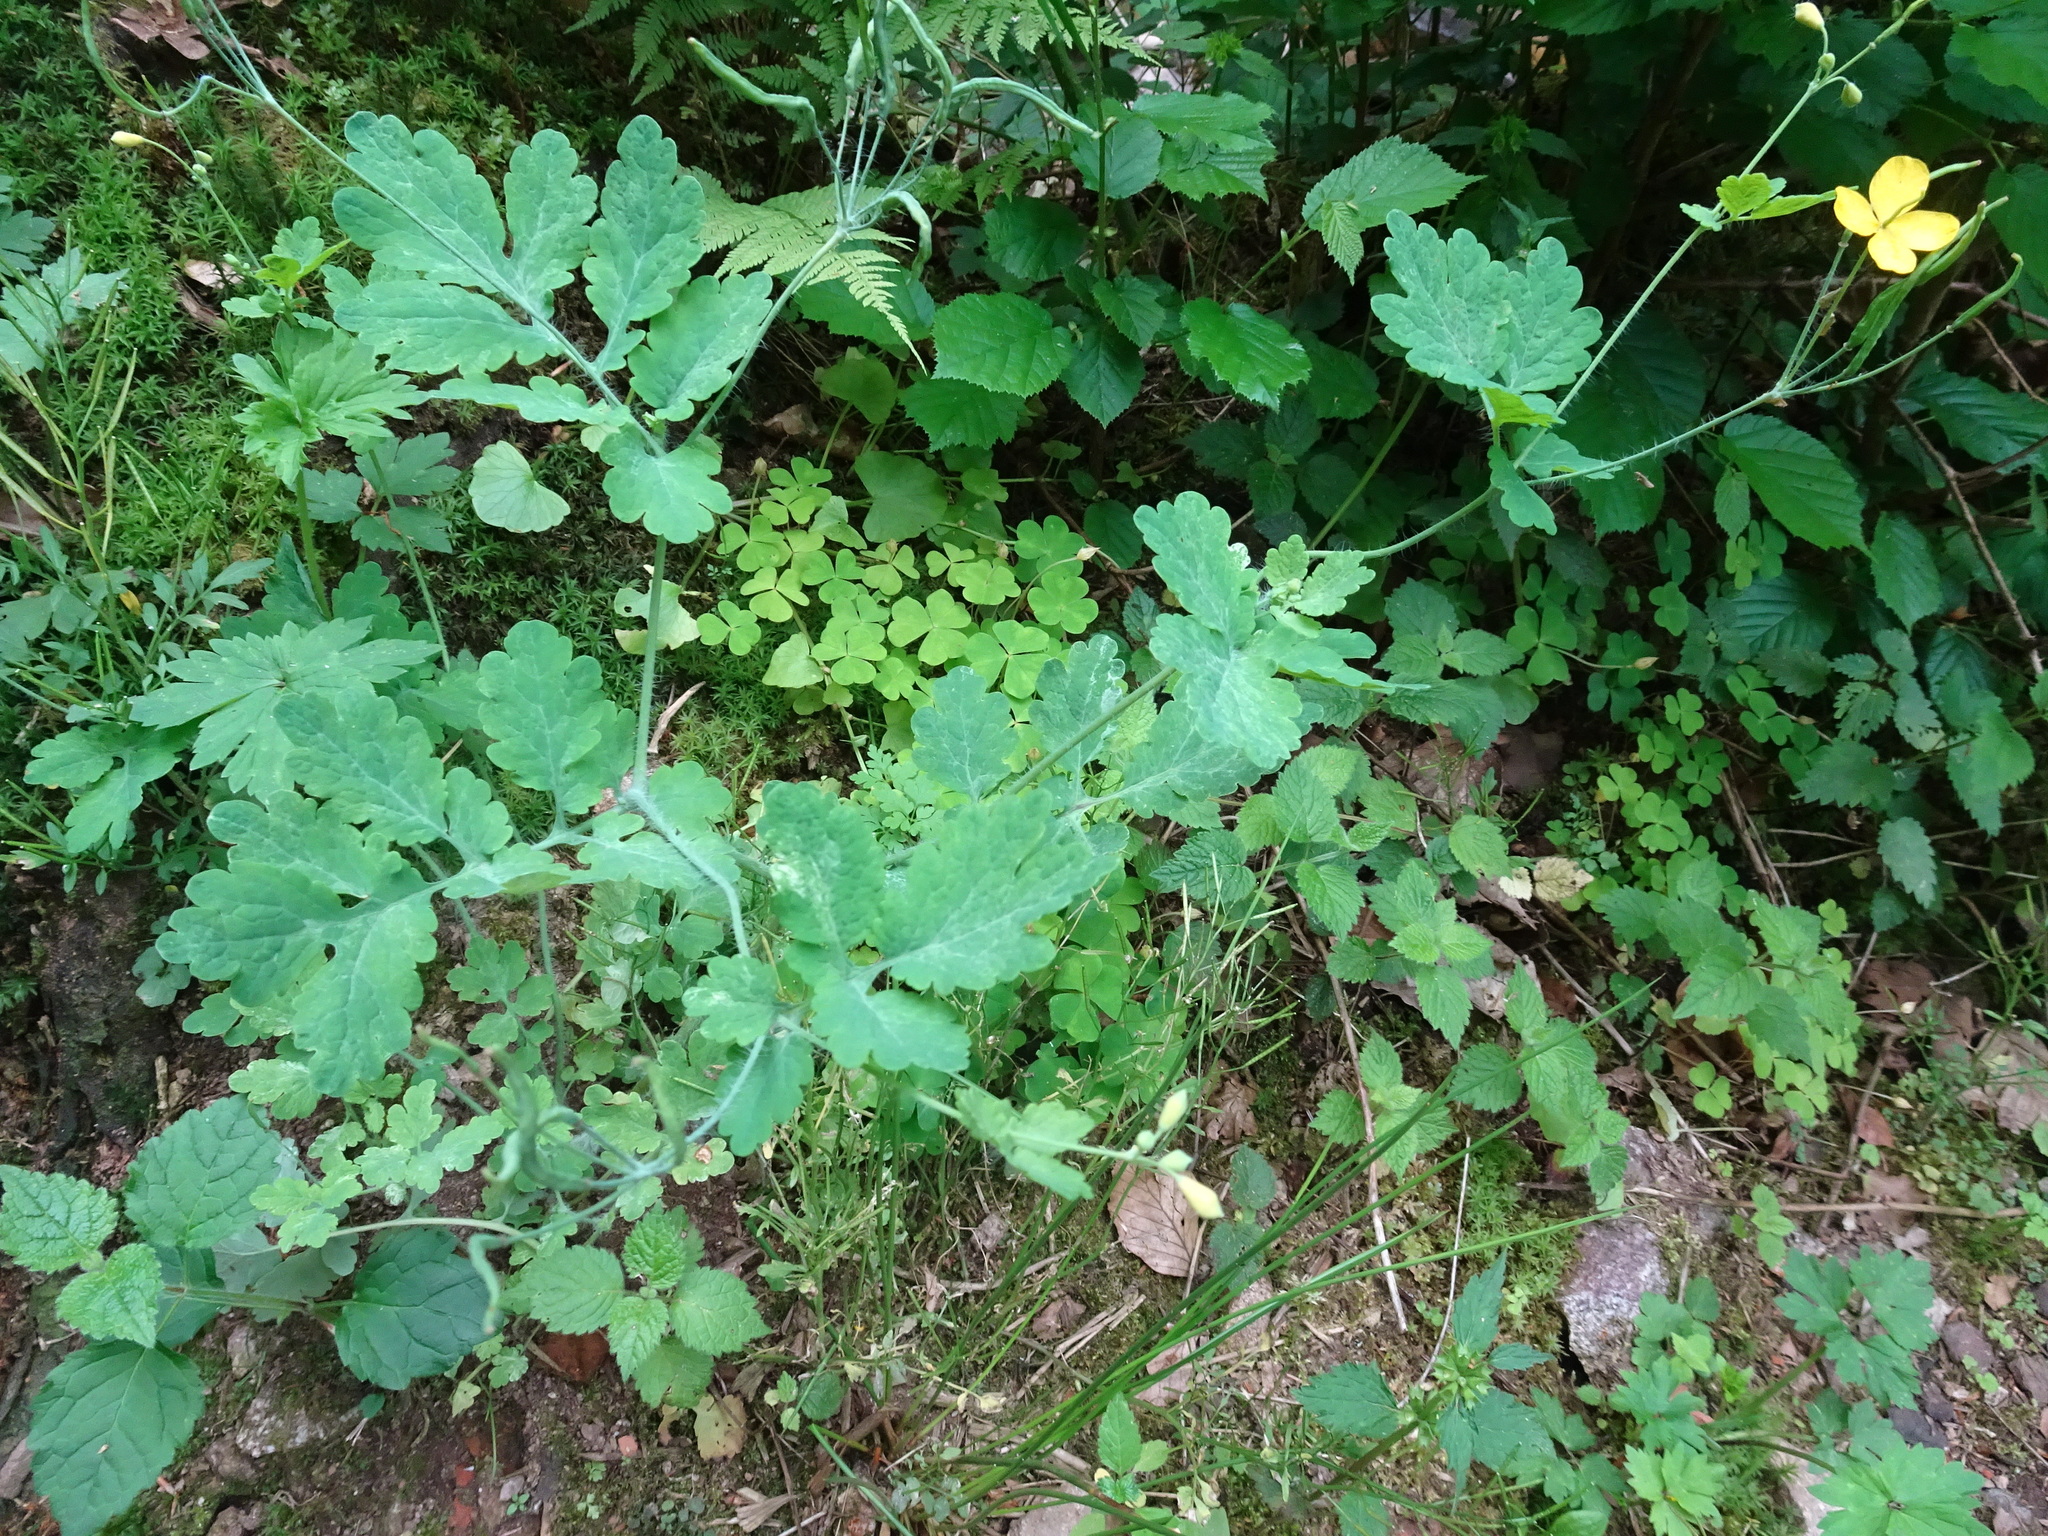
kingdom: Plantae
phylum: Tracheophyta
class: Magnoliopsida
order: Ranunculales
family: Papaveraceae
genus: Chelidonium
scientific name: Chelidonium majus
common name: Greater celandine
